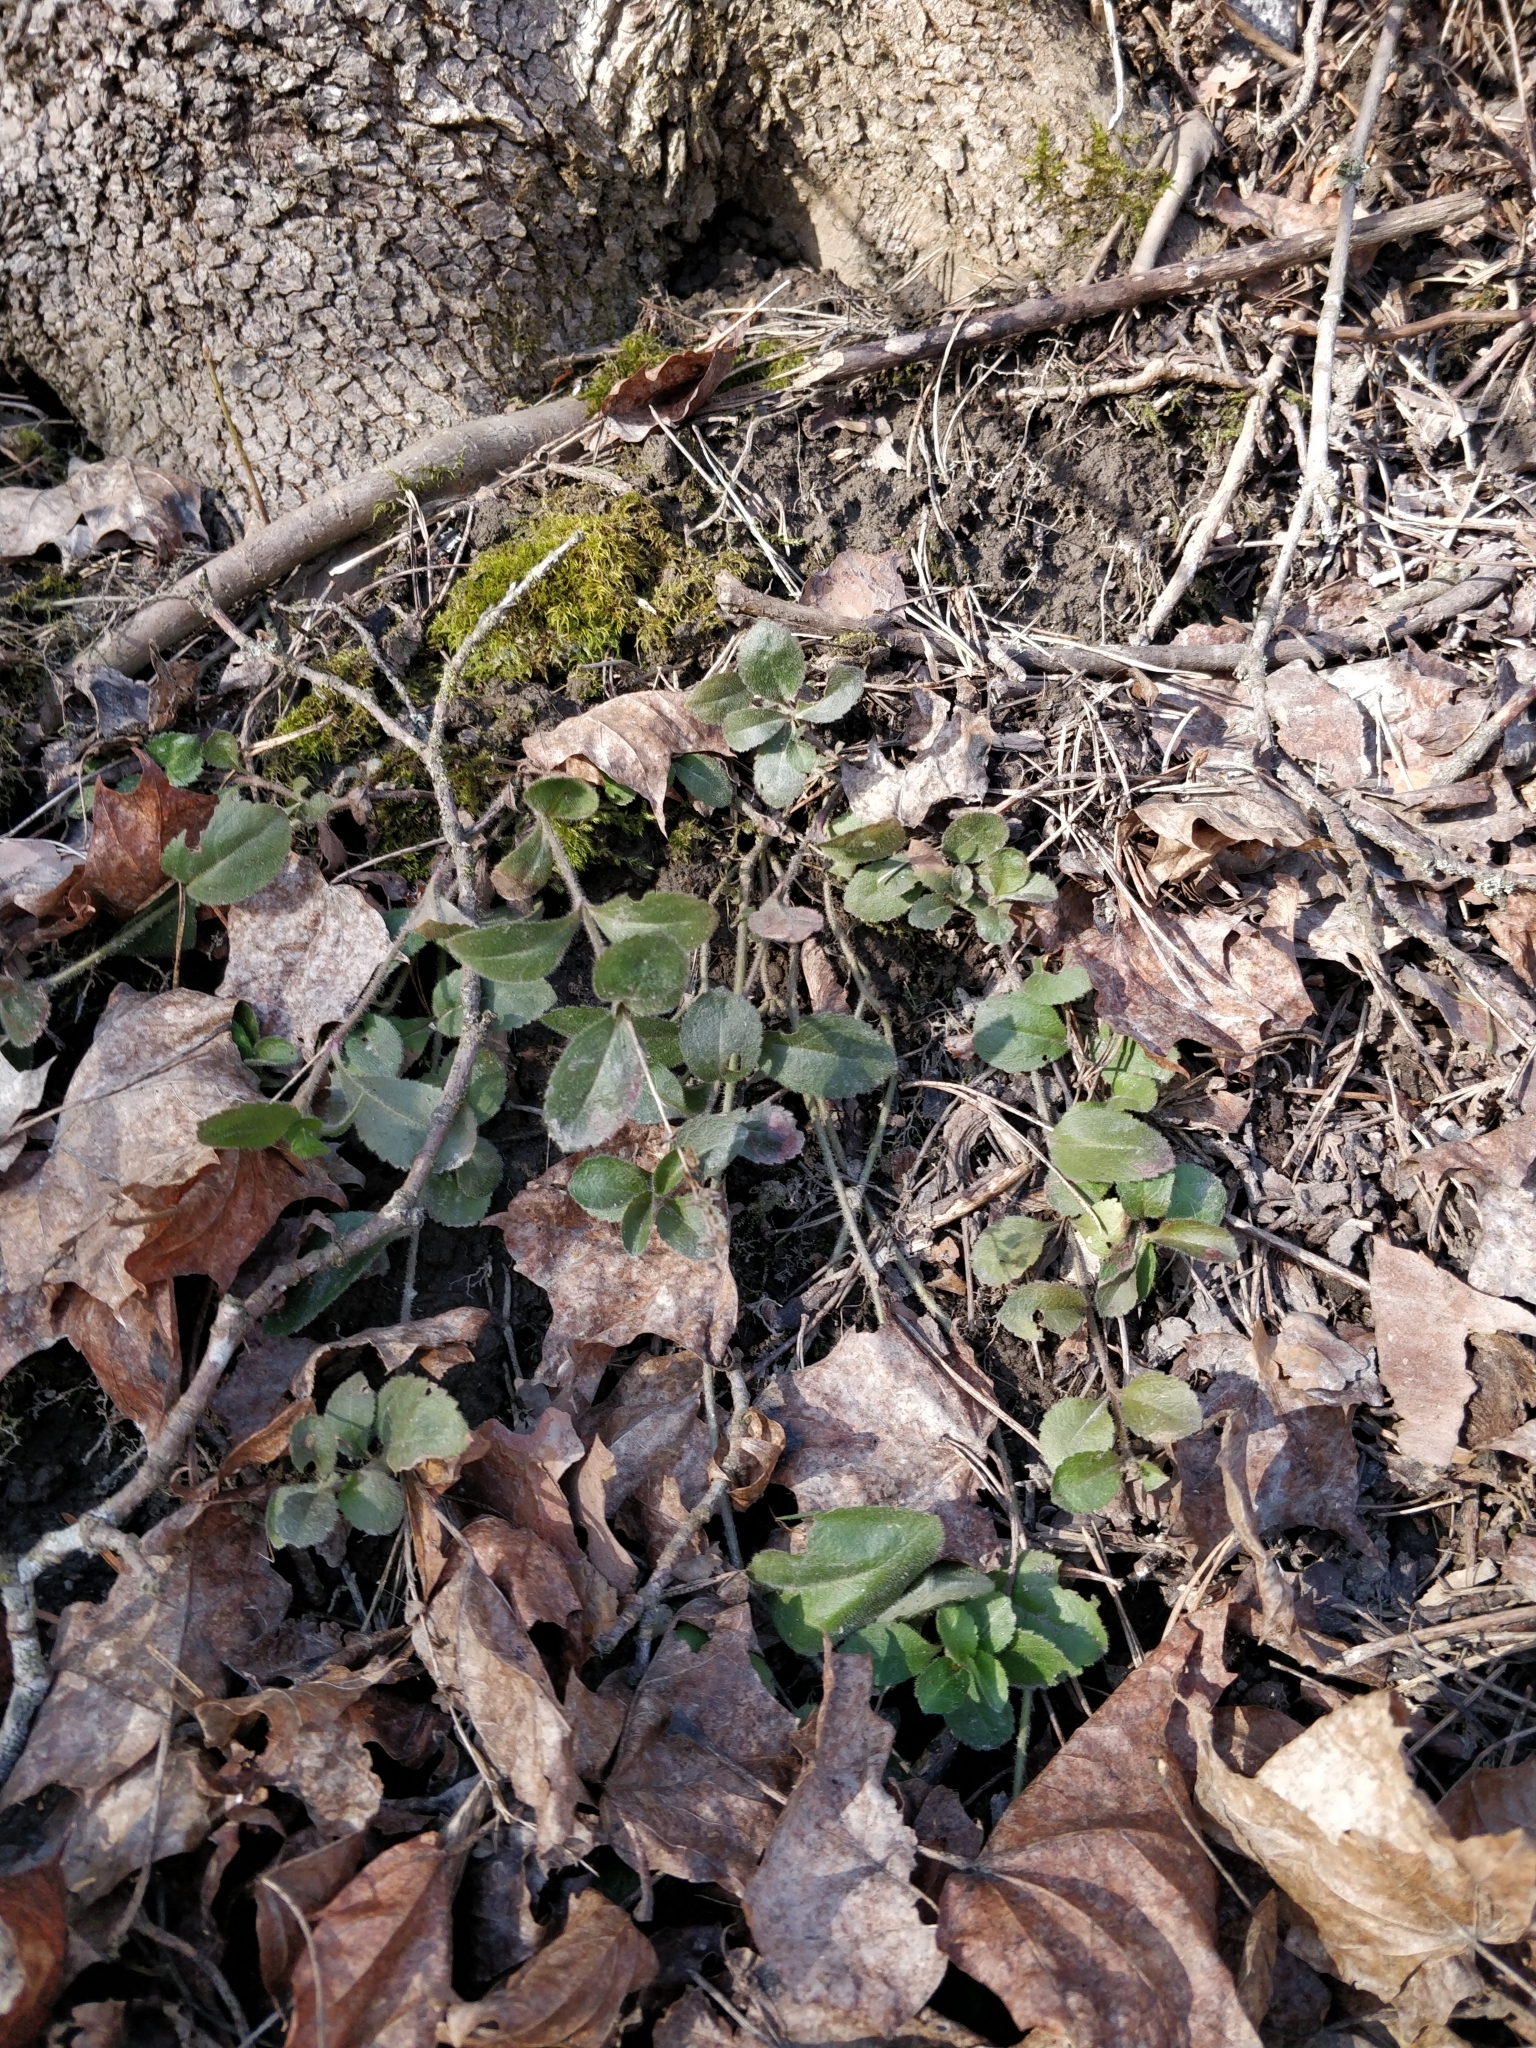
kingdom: Plantae
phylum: Tracheophyta
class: Magnoliopsida
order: Lamiales
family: Plantaginaceae
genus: Veronica
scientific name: Veronica officinalis
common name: Common speedwell
